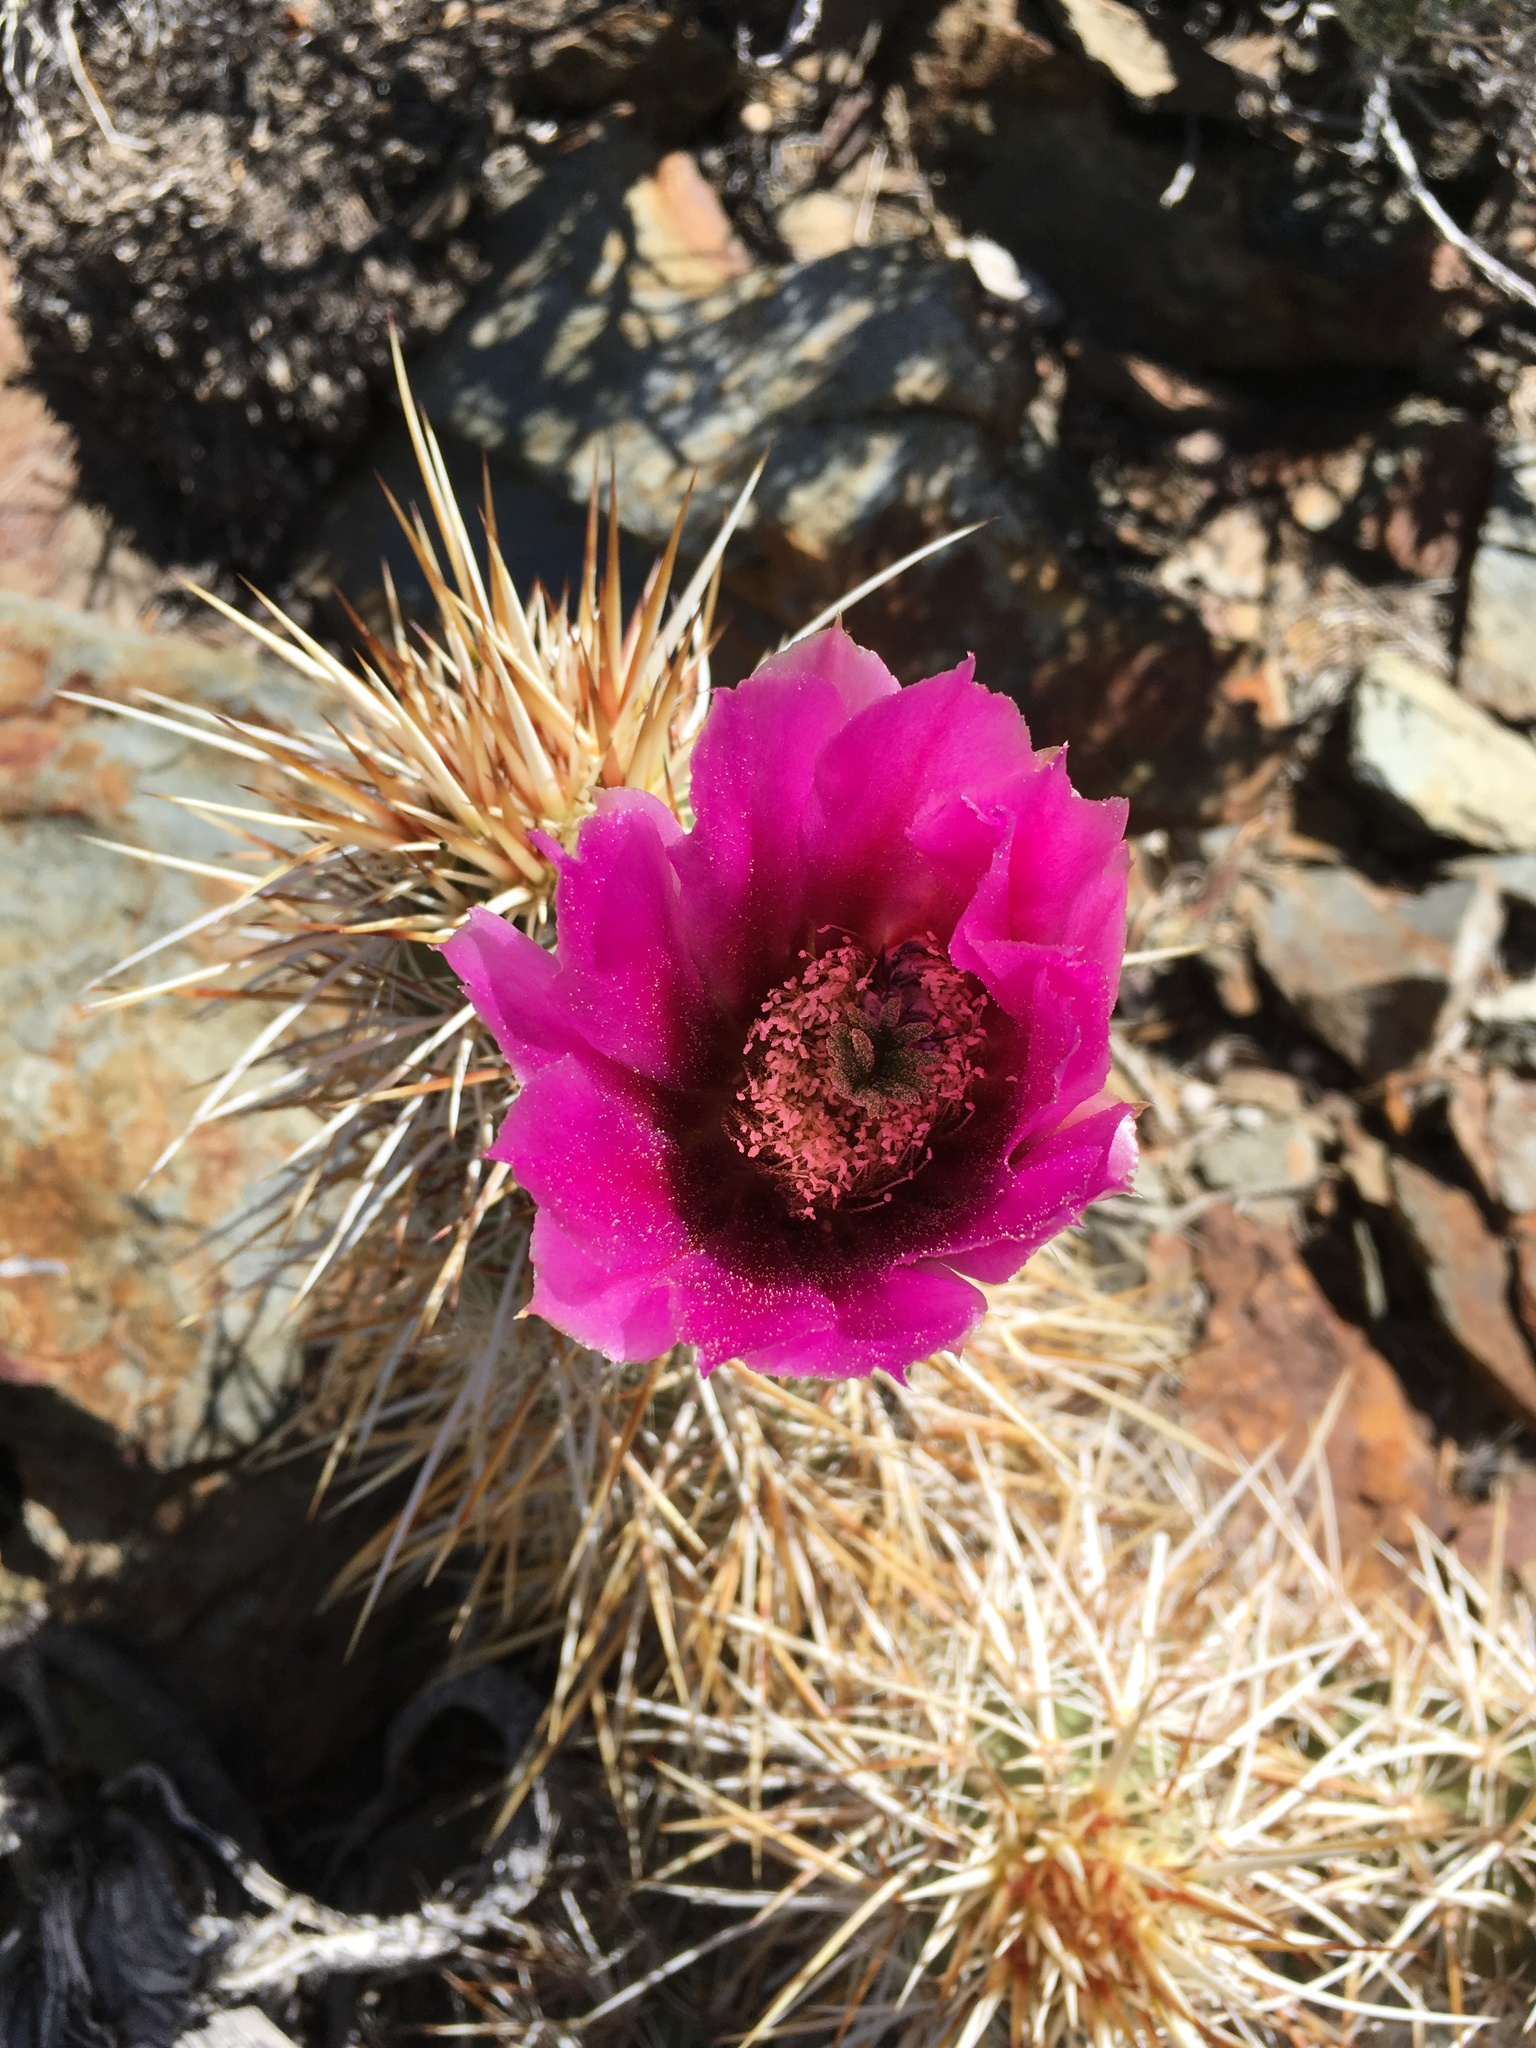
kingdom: Plantae
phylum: Tracheophyta
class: Magnoliopsida
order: Caryophyllales
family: Cactaceae
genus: Echinocereus
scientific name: Echinocereus engelmannii
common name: Engelmann's hedgehog cactus
